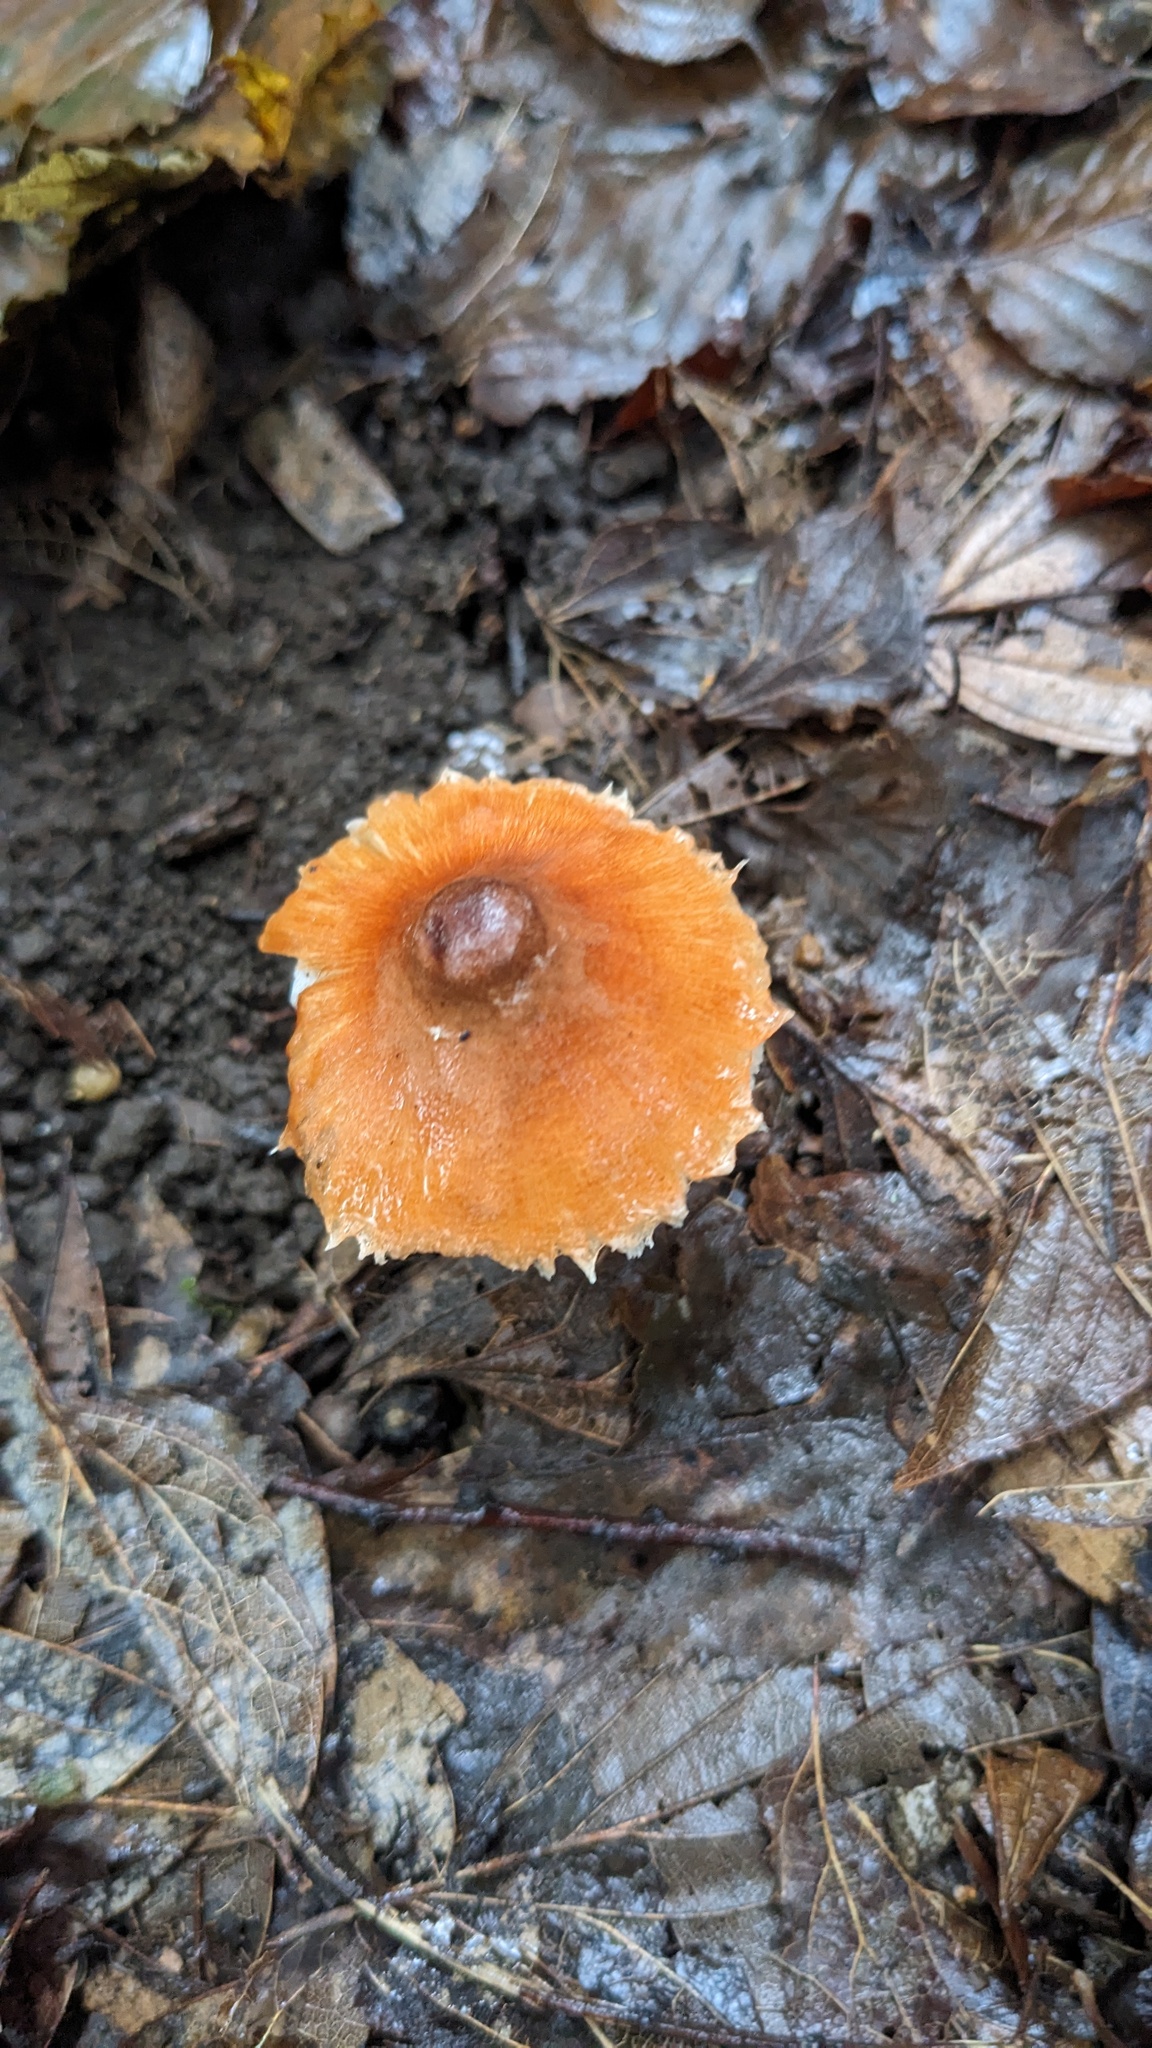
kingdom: Fungi
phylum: Basidiomycota
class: Agaricomycetes
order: Agaricales
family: Agaricaceae
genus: Leucoagaricus
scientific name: Leucoagaricus rubrotinctus
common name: Ruby dapperling
